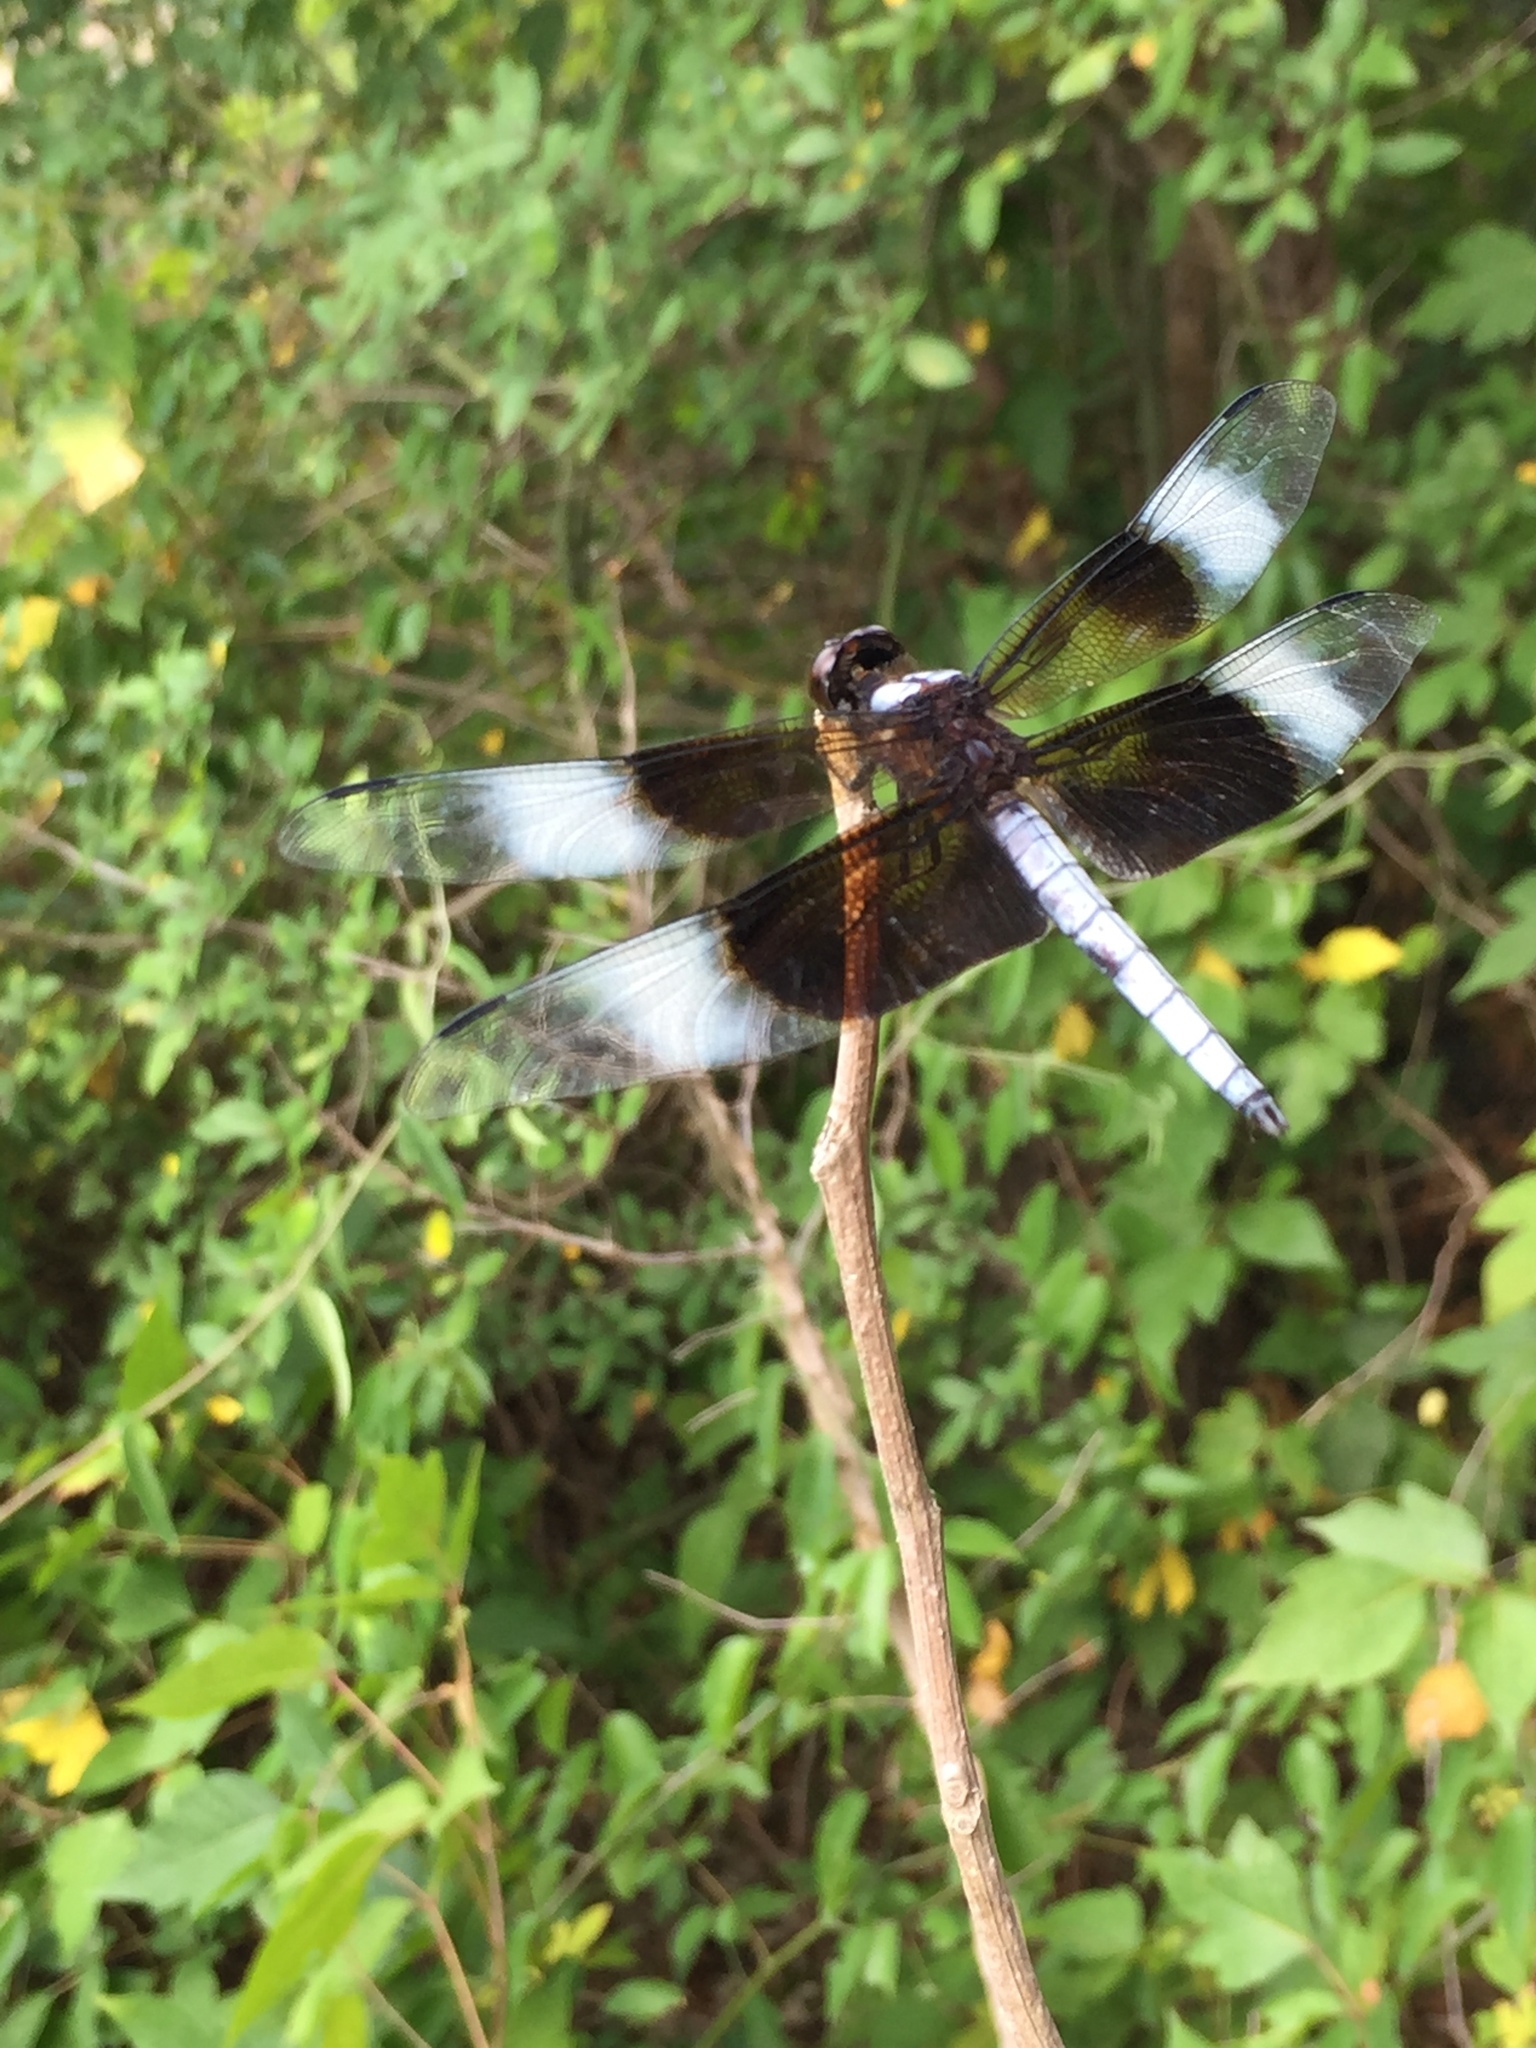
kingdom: Animalia
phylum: Arthropoda
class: Insecta
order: Odonata
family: Libellulidae
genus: Libellula
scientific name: Libellula luctuosa
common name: Widow skimmer
